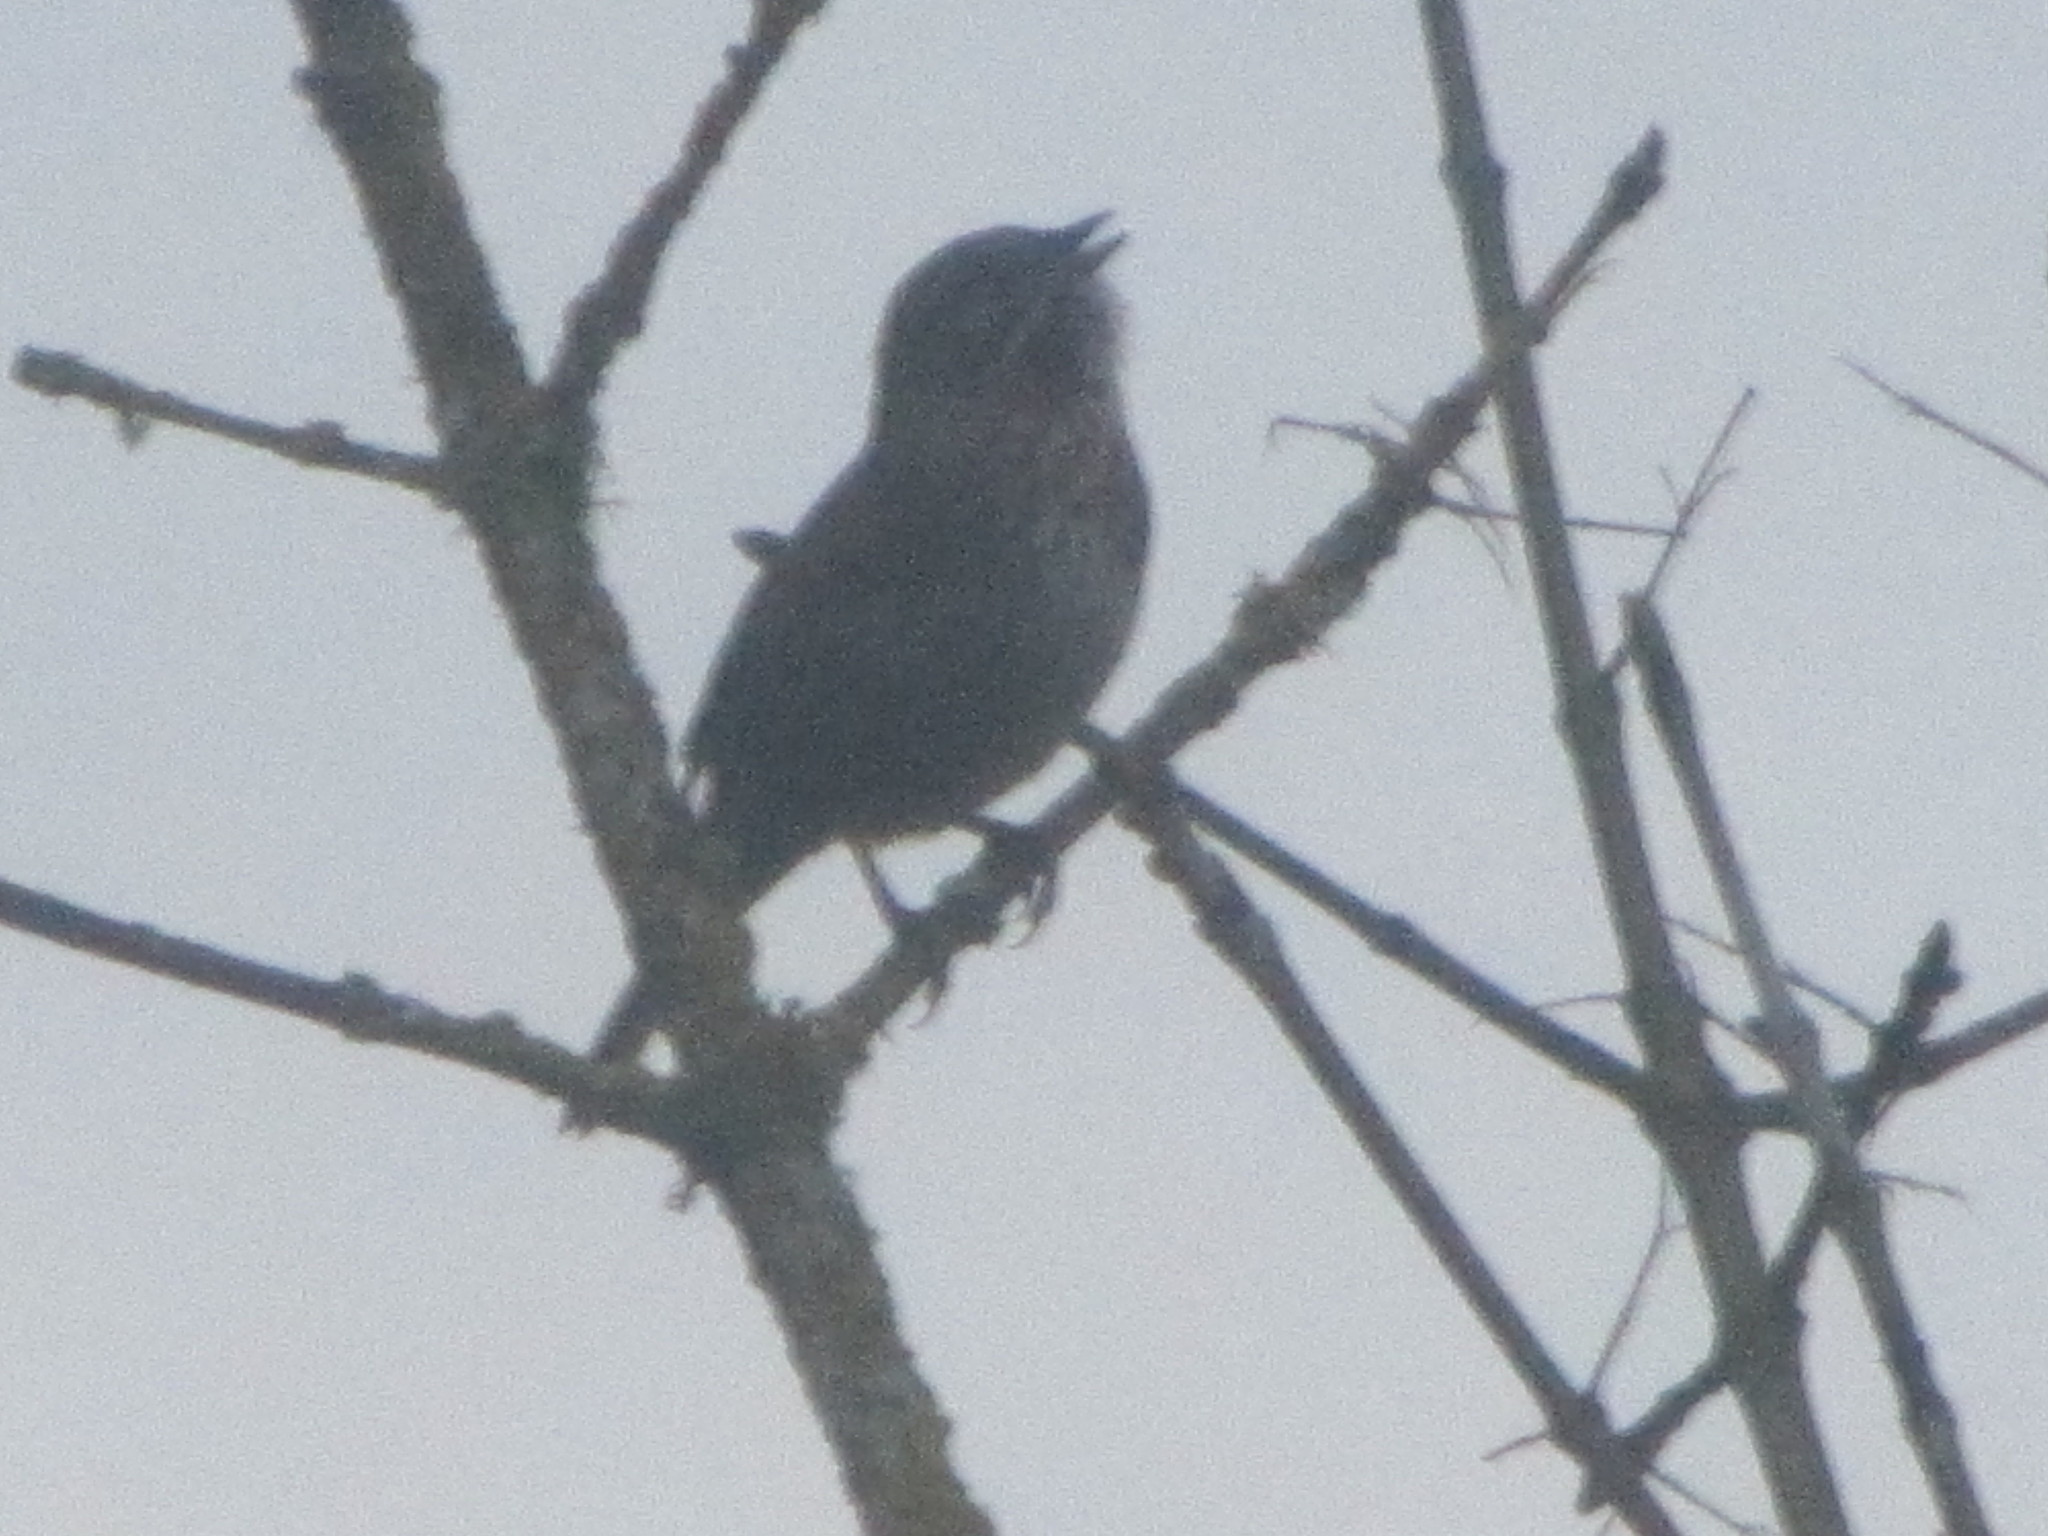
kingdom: Animalia
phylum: Chordata
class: Aves
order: Passeriformes
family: Passerellidae
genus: Melospiza
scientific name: Melospiza melodia
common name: Song sparrow
